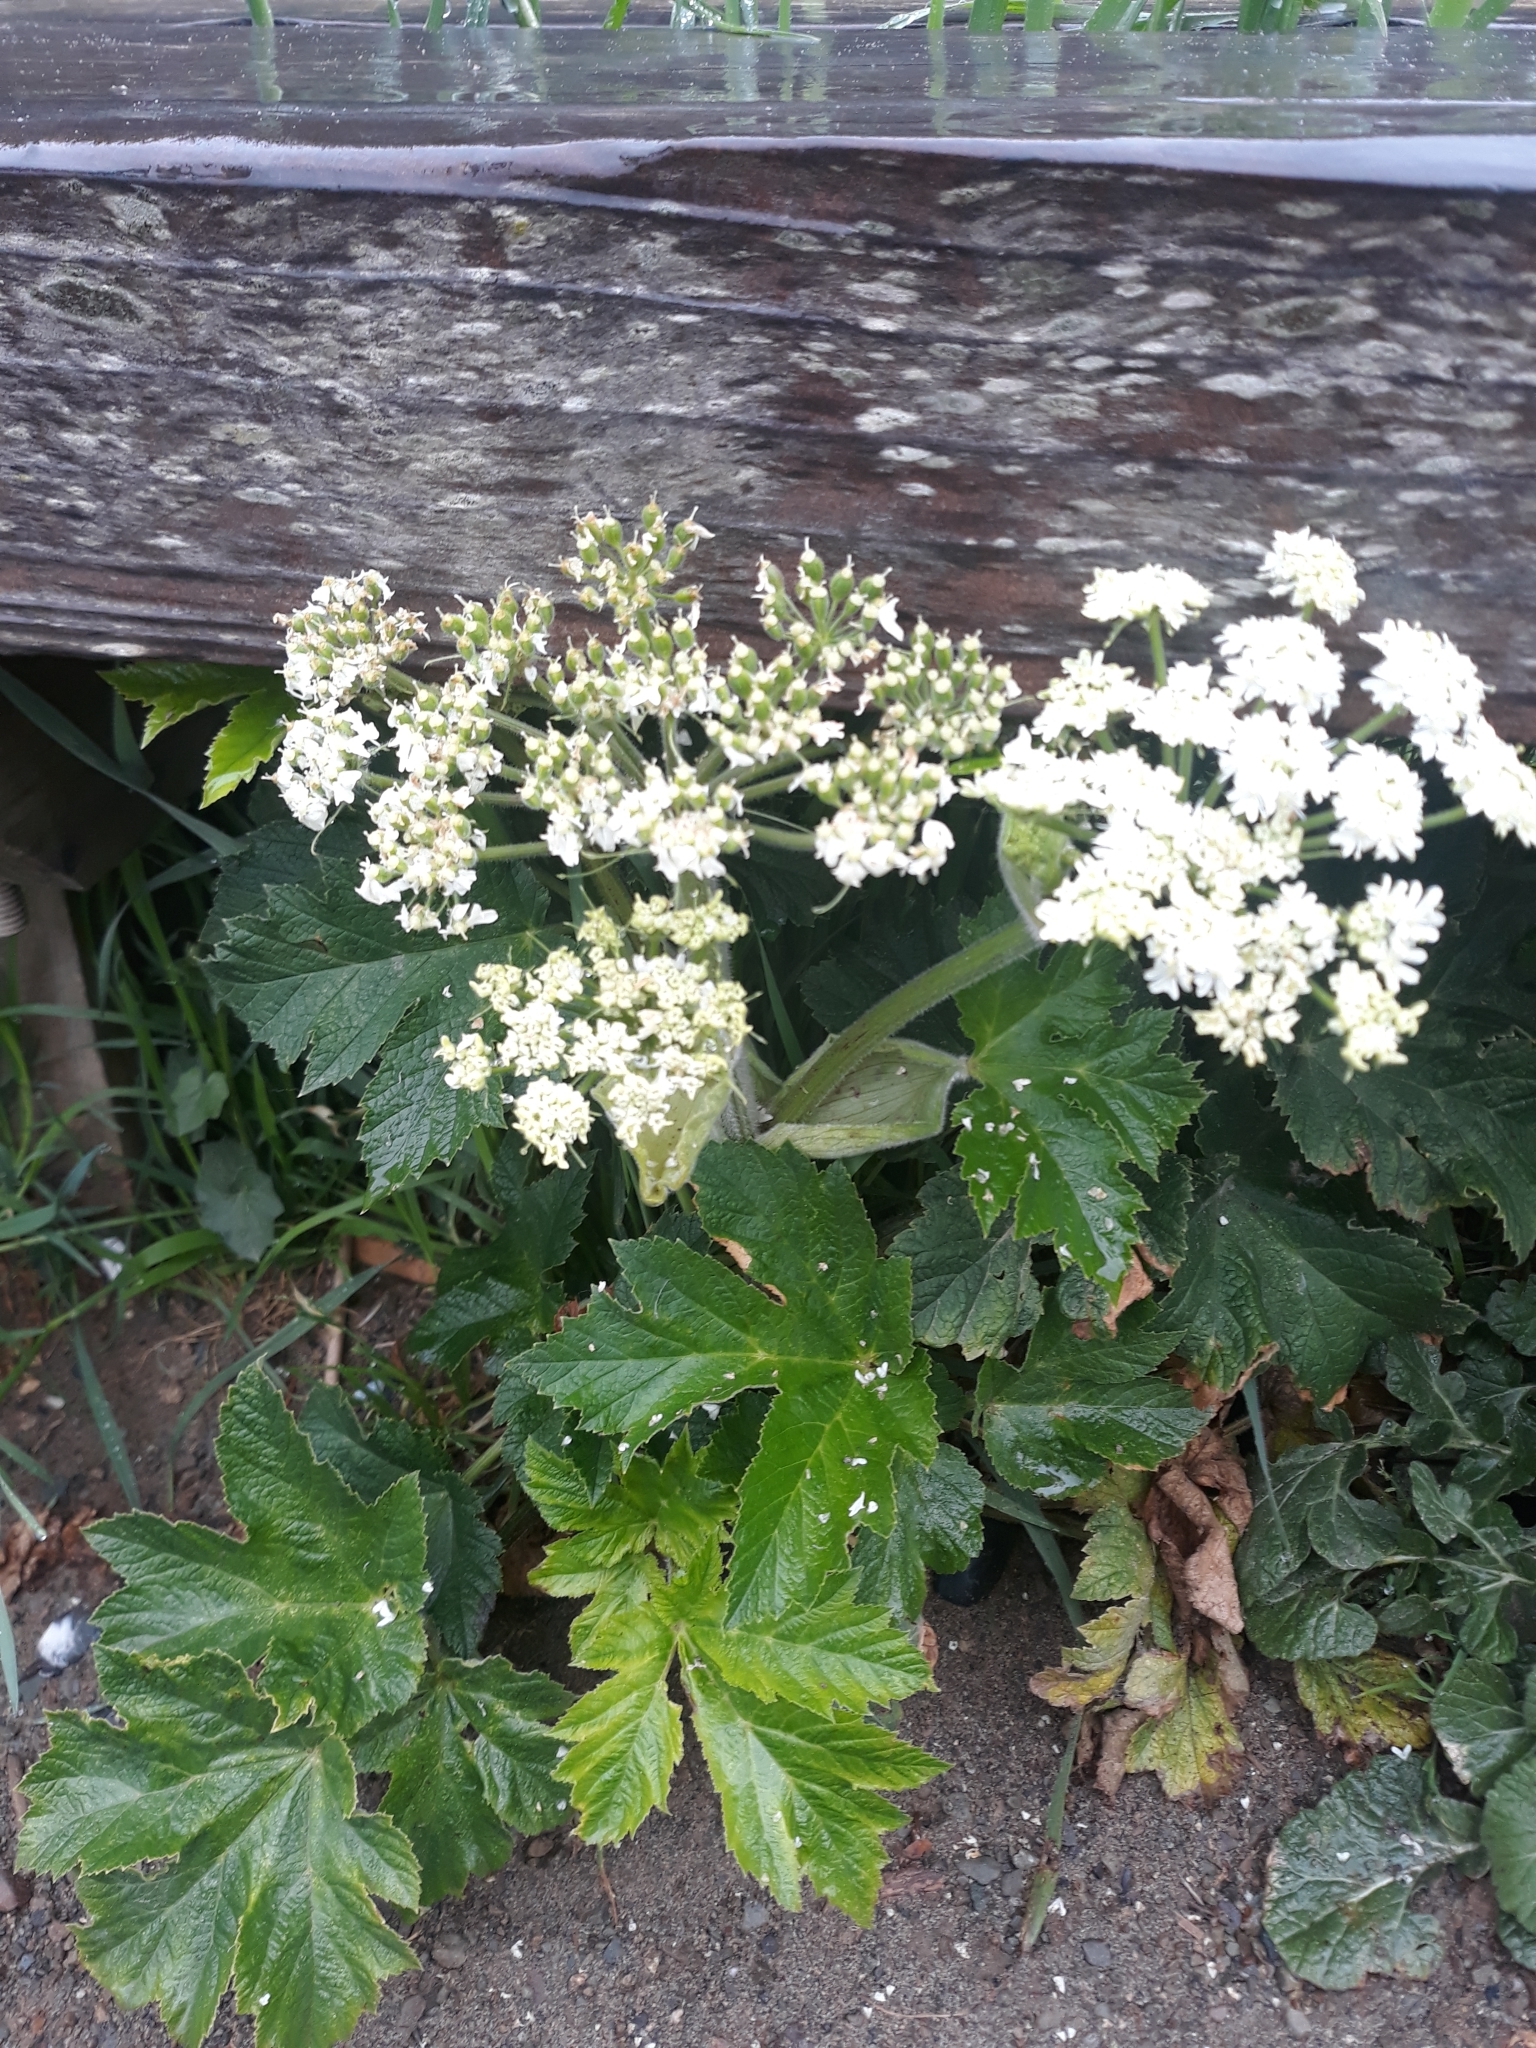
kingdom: Plantae
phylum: Tracheophyta
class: Magnoliopsida
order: Apiales
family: Apiaceae
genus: Heracleum
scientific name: Heracleum maximum
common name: American cow parsnip
